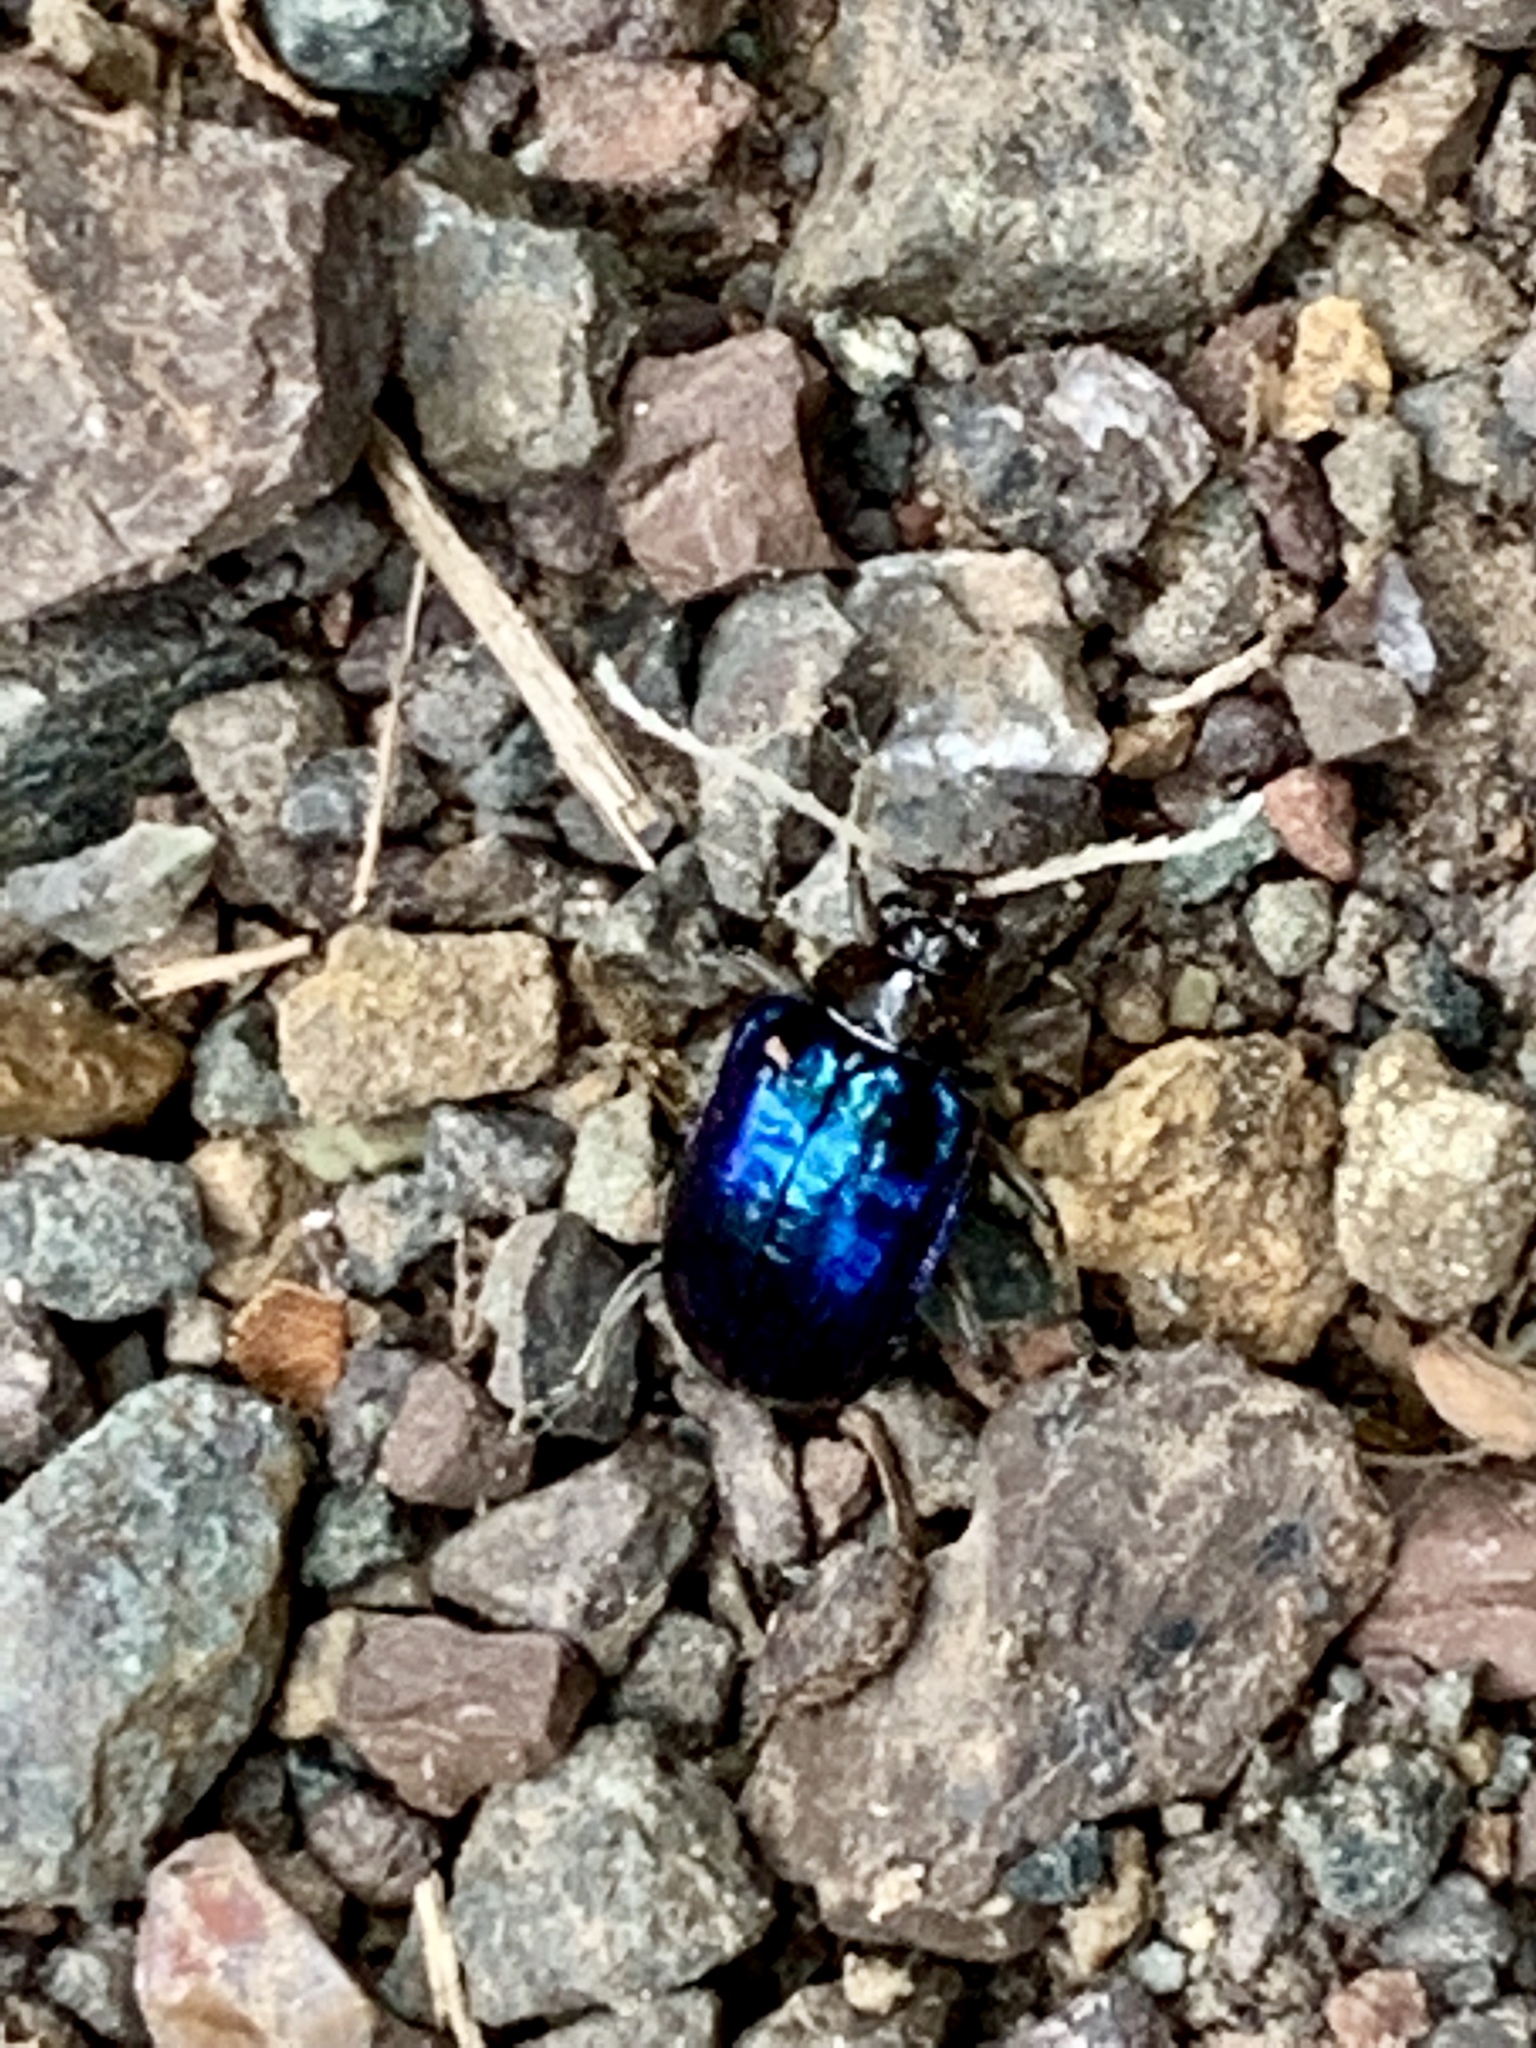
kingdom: Animalia
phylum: Arthropoda
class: Insecta
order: Coleoptera
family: Chrysomelidae
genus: Aplosonyx
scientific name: Aplosonyx
